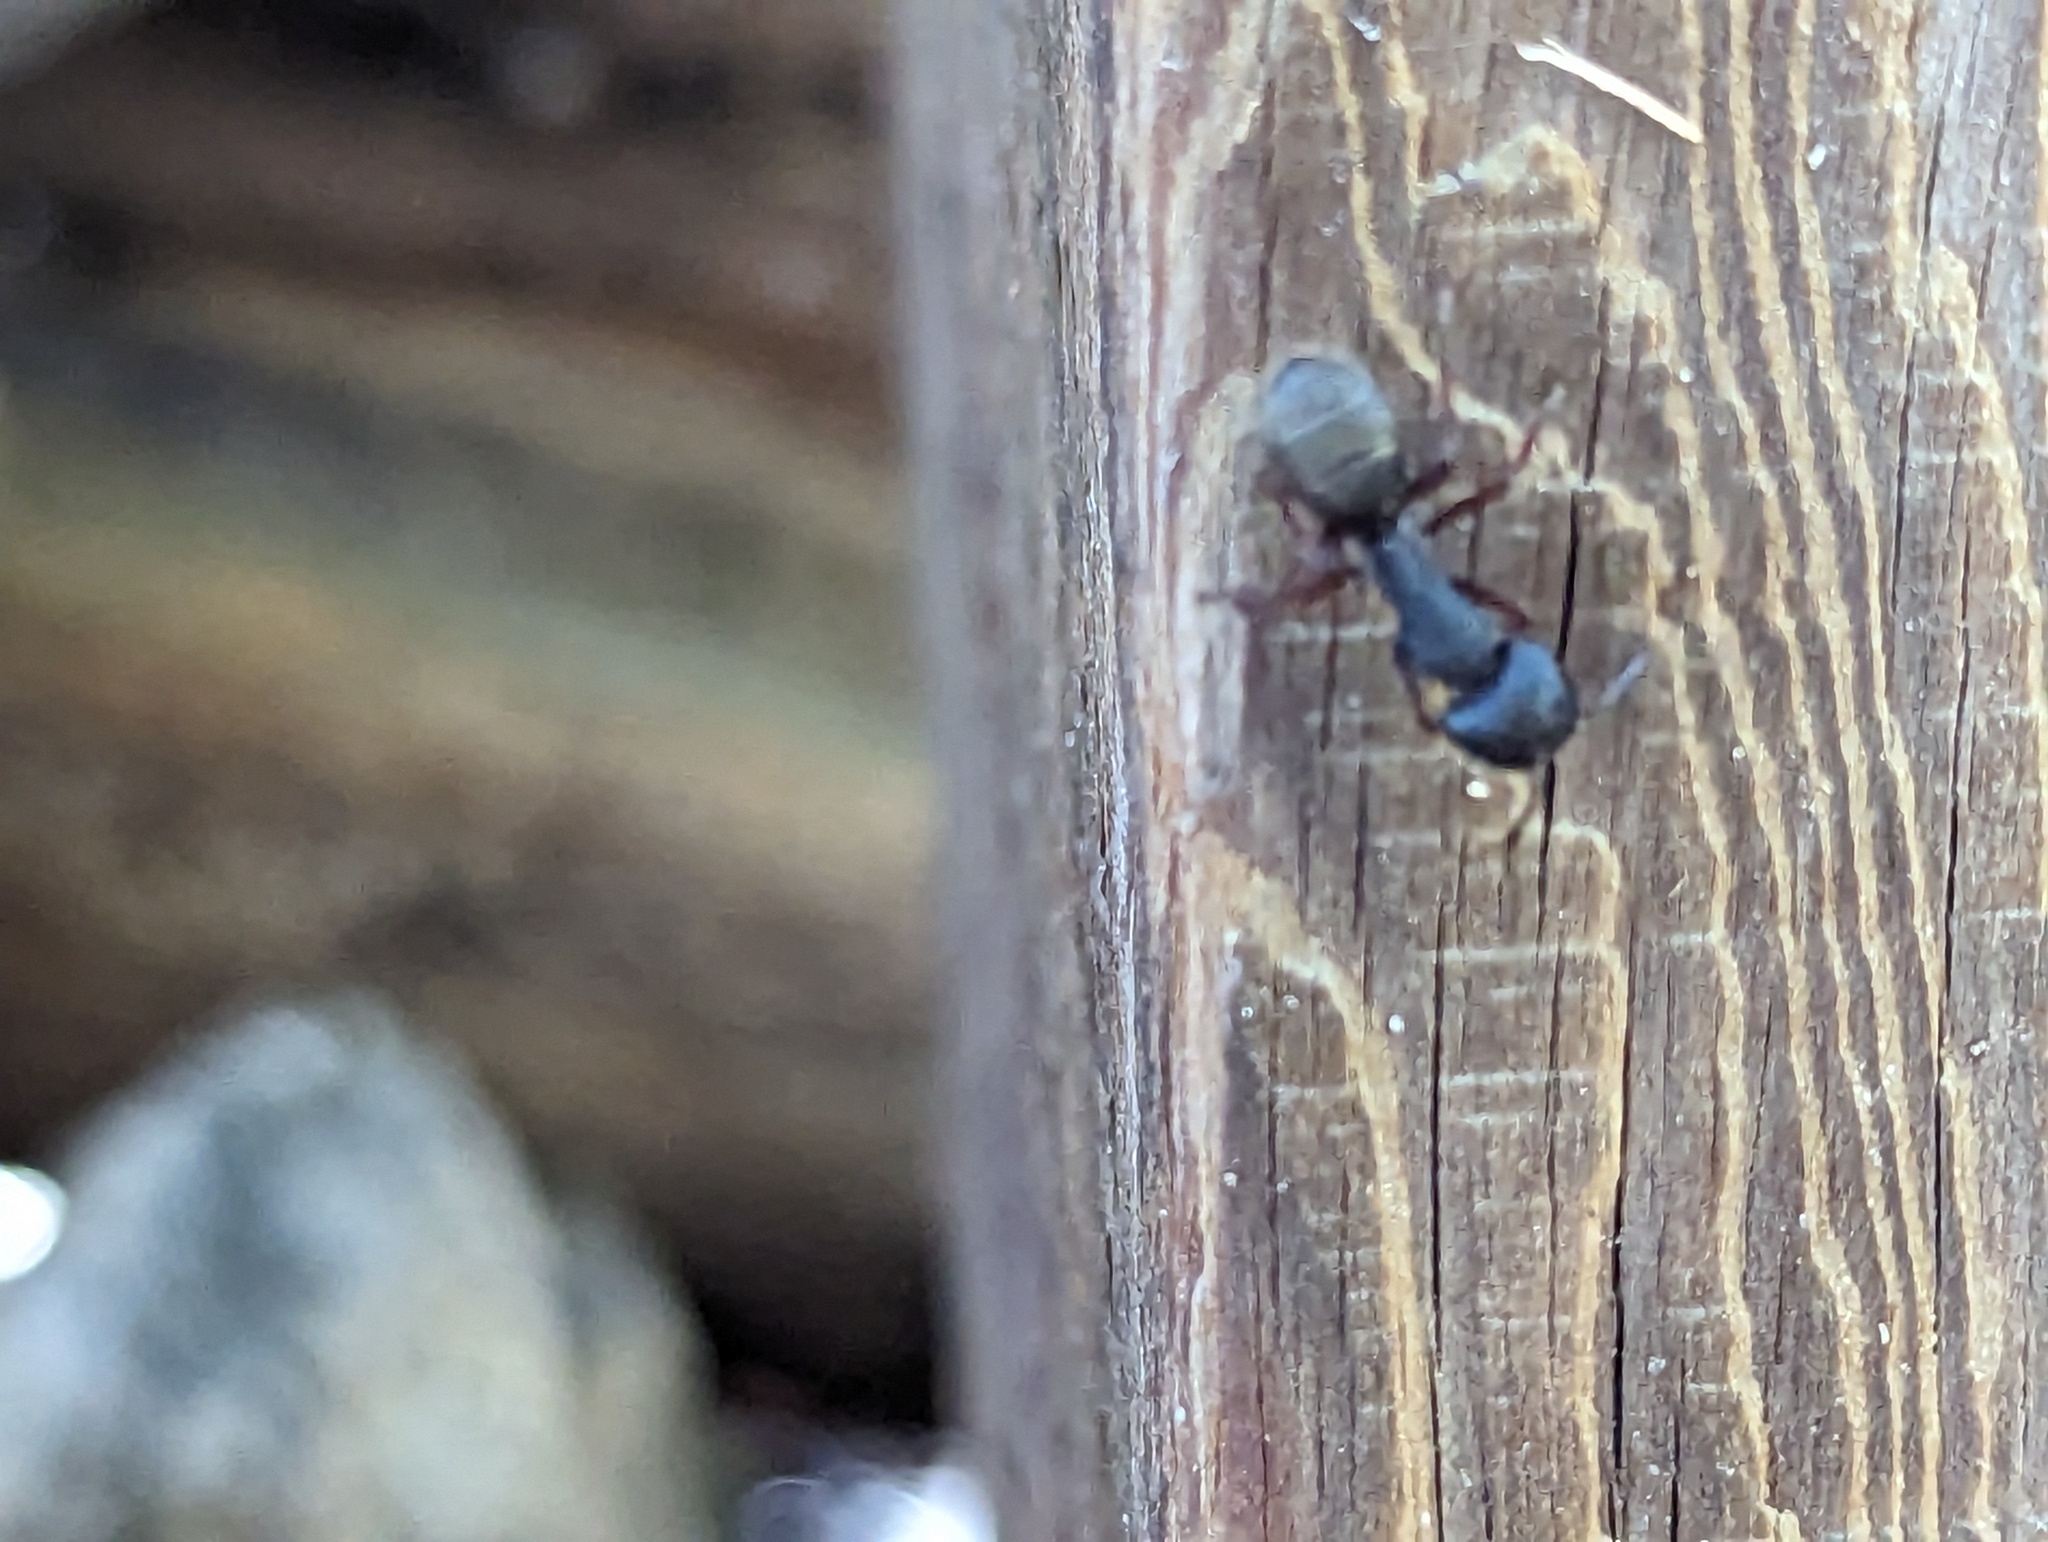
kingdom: Animalia
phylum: Arthropoda
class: Insecta
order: Hymenoptera
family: Formicidae
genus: Camponotus
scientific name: Camponotus modoc
